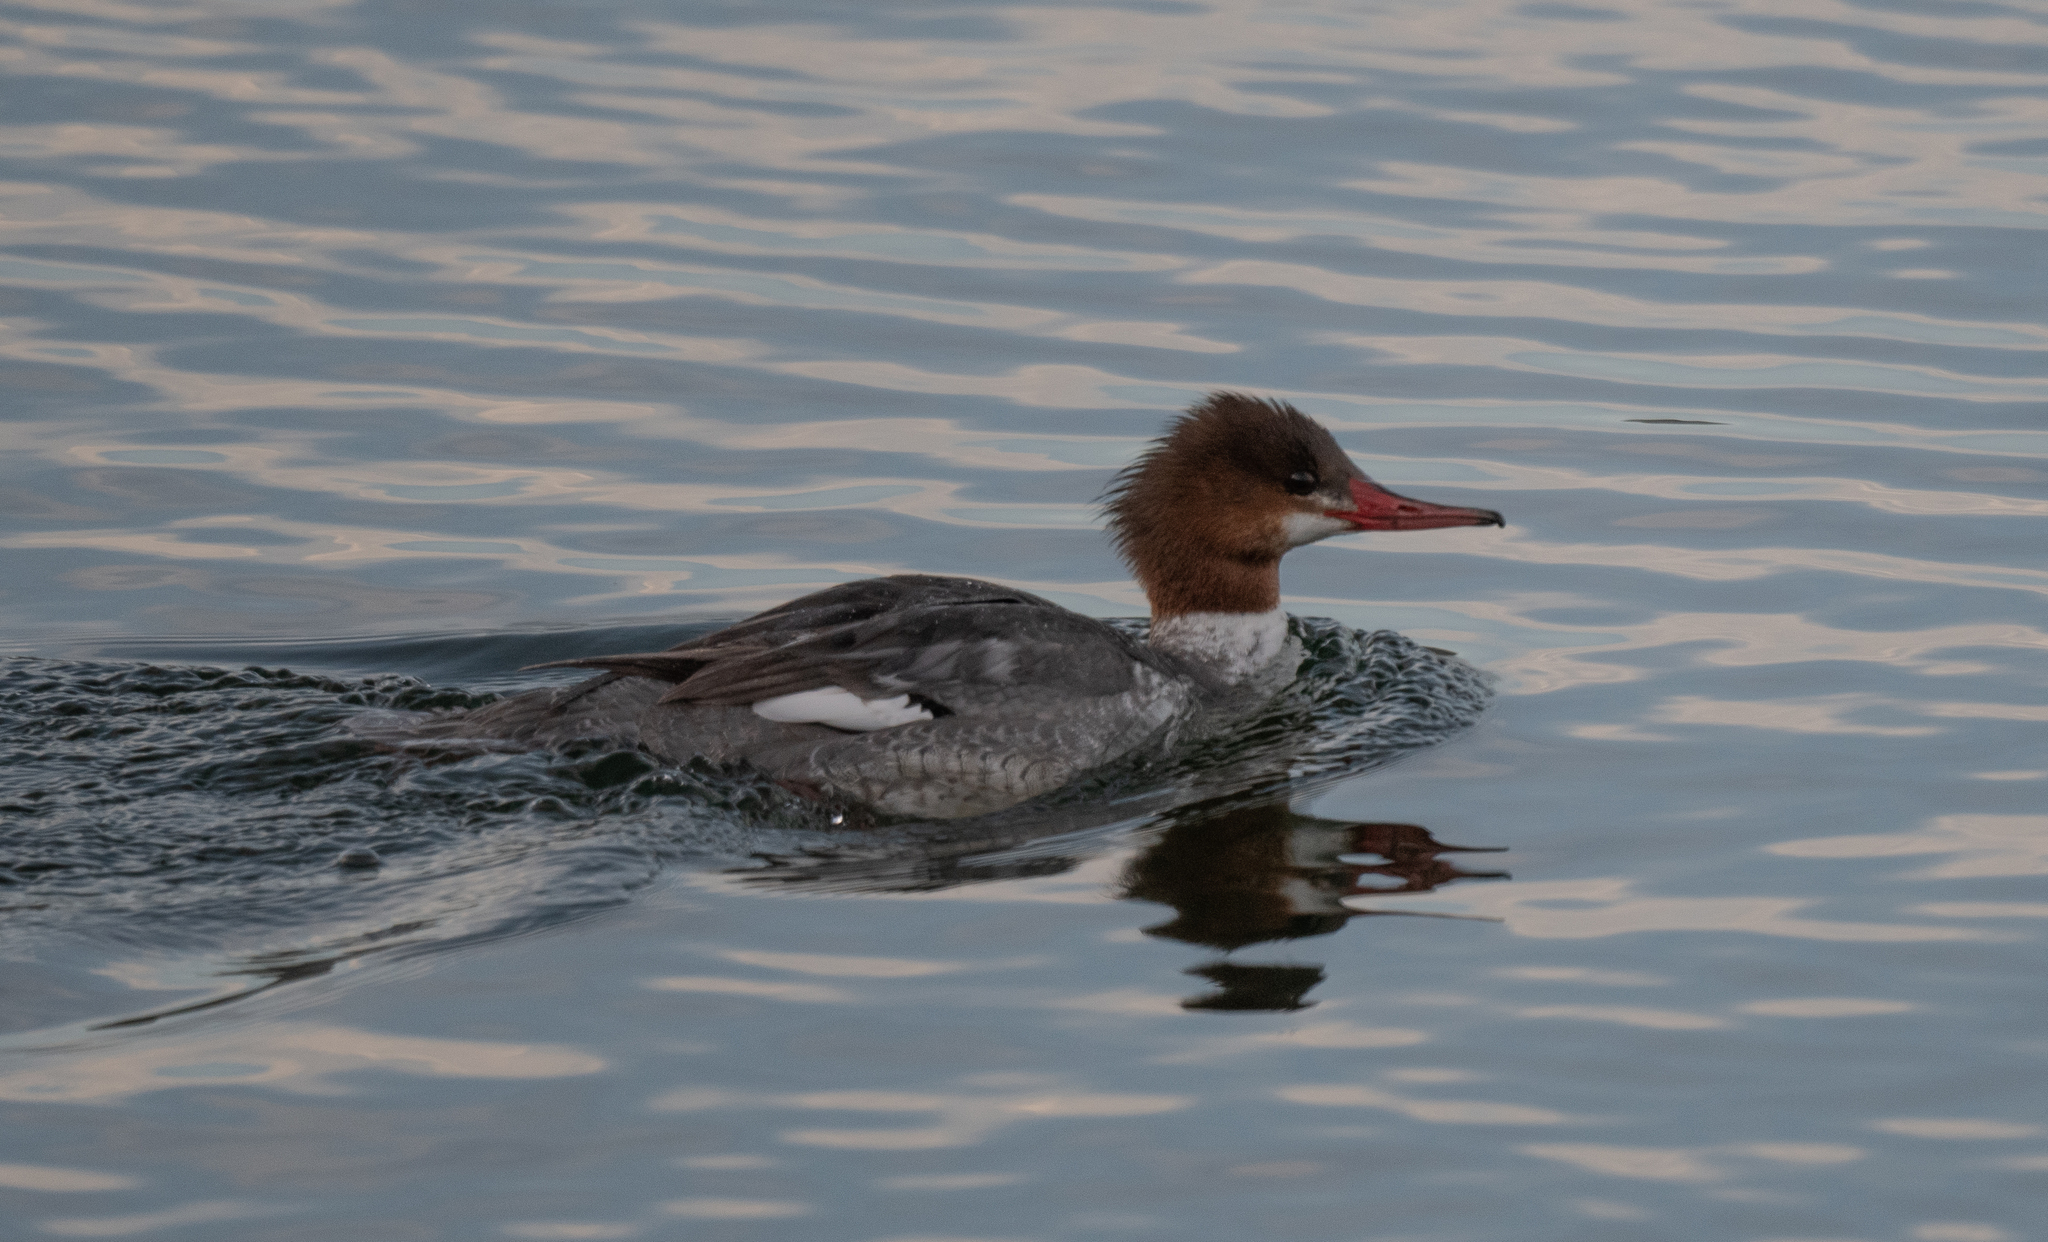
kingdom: Animalia
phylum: Chordata
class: Aves
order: Anseriformes
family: Anatidae
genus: Mergus
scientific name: Mergus merganser
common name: Common merganser
